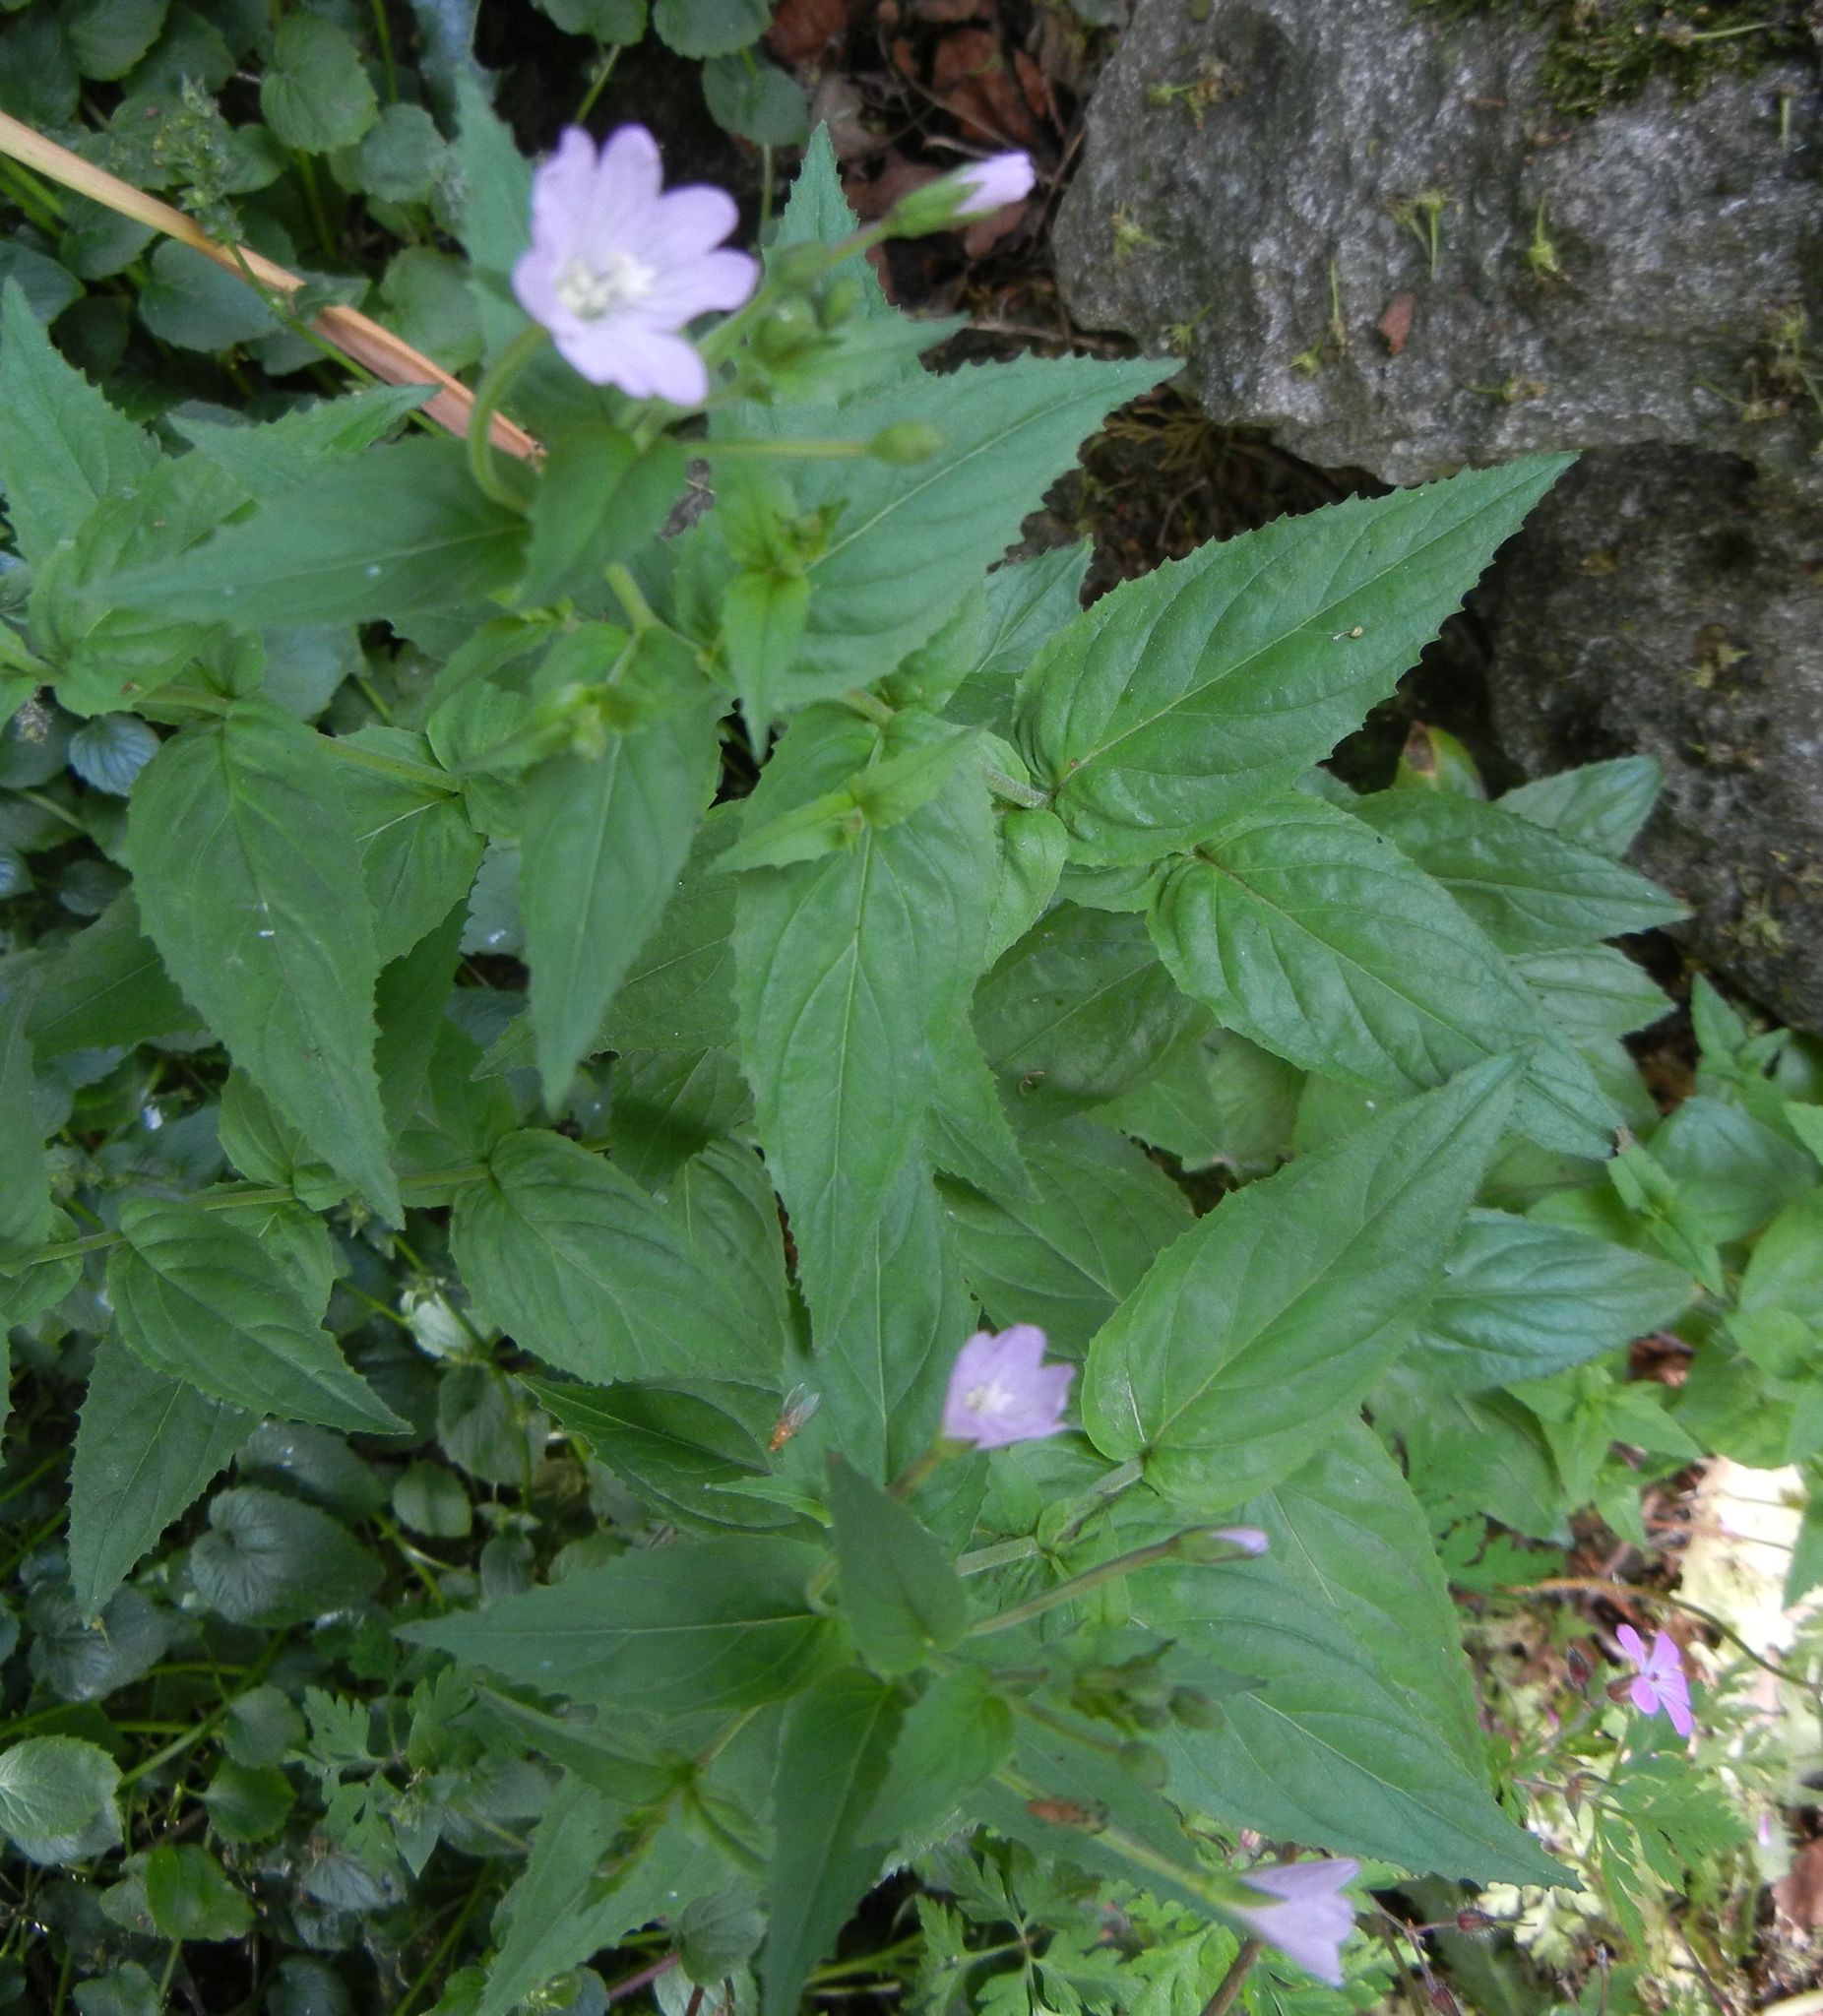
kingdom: Plantae
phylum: Tracheophyta
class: Magnoliopsida
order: Myrtales
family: Onagraceae
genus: Epilobium
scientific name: Epilobium montanum
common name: Broad-leaved willowherb
